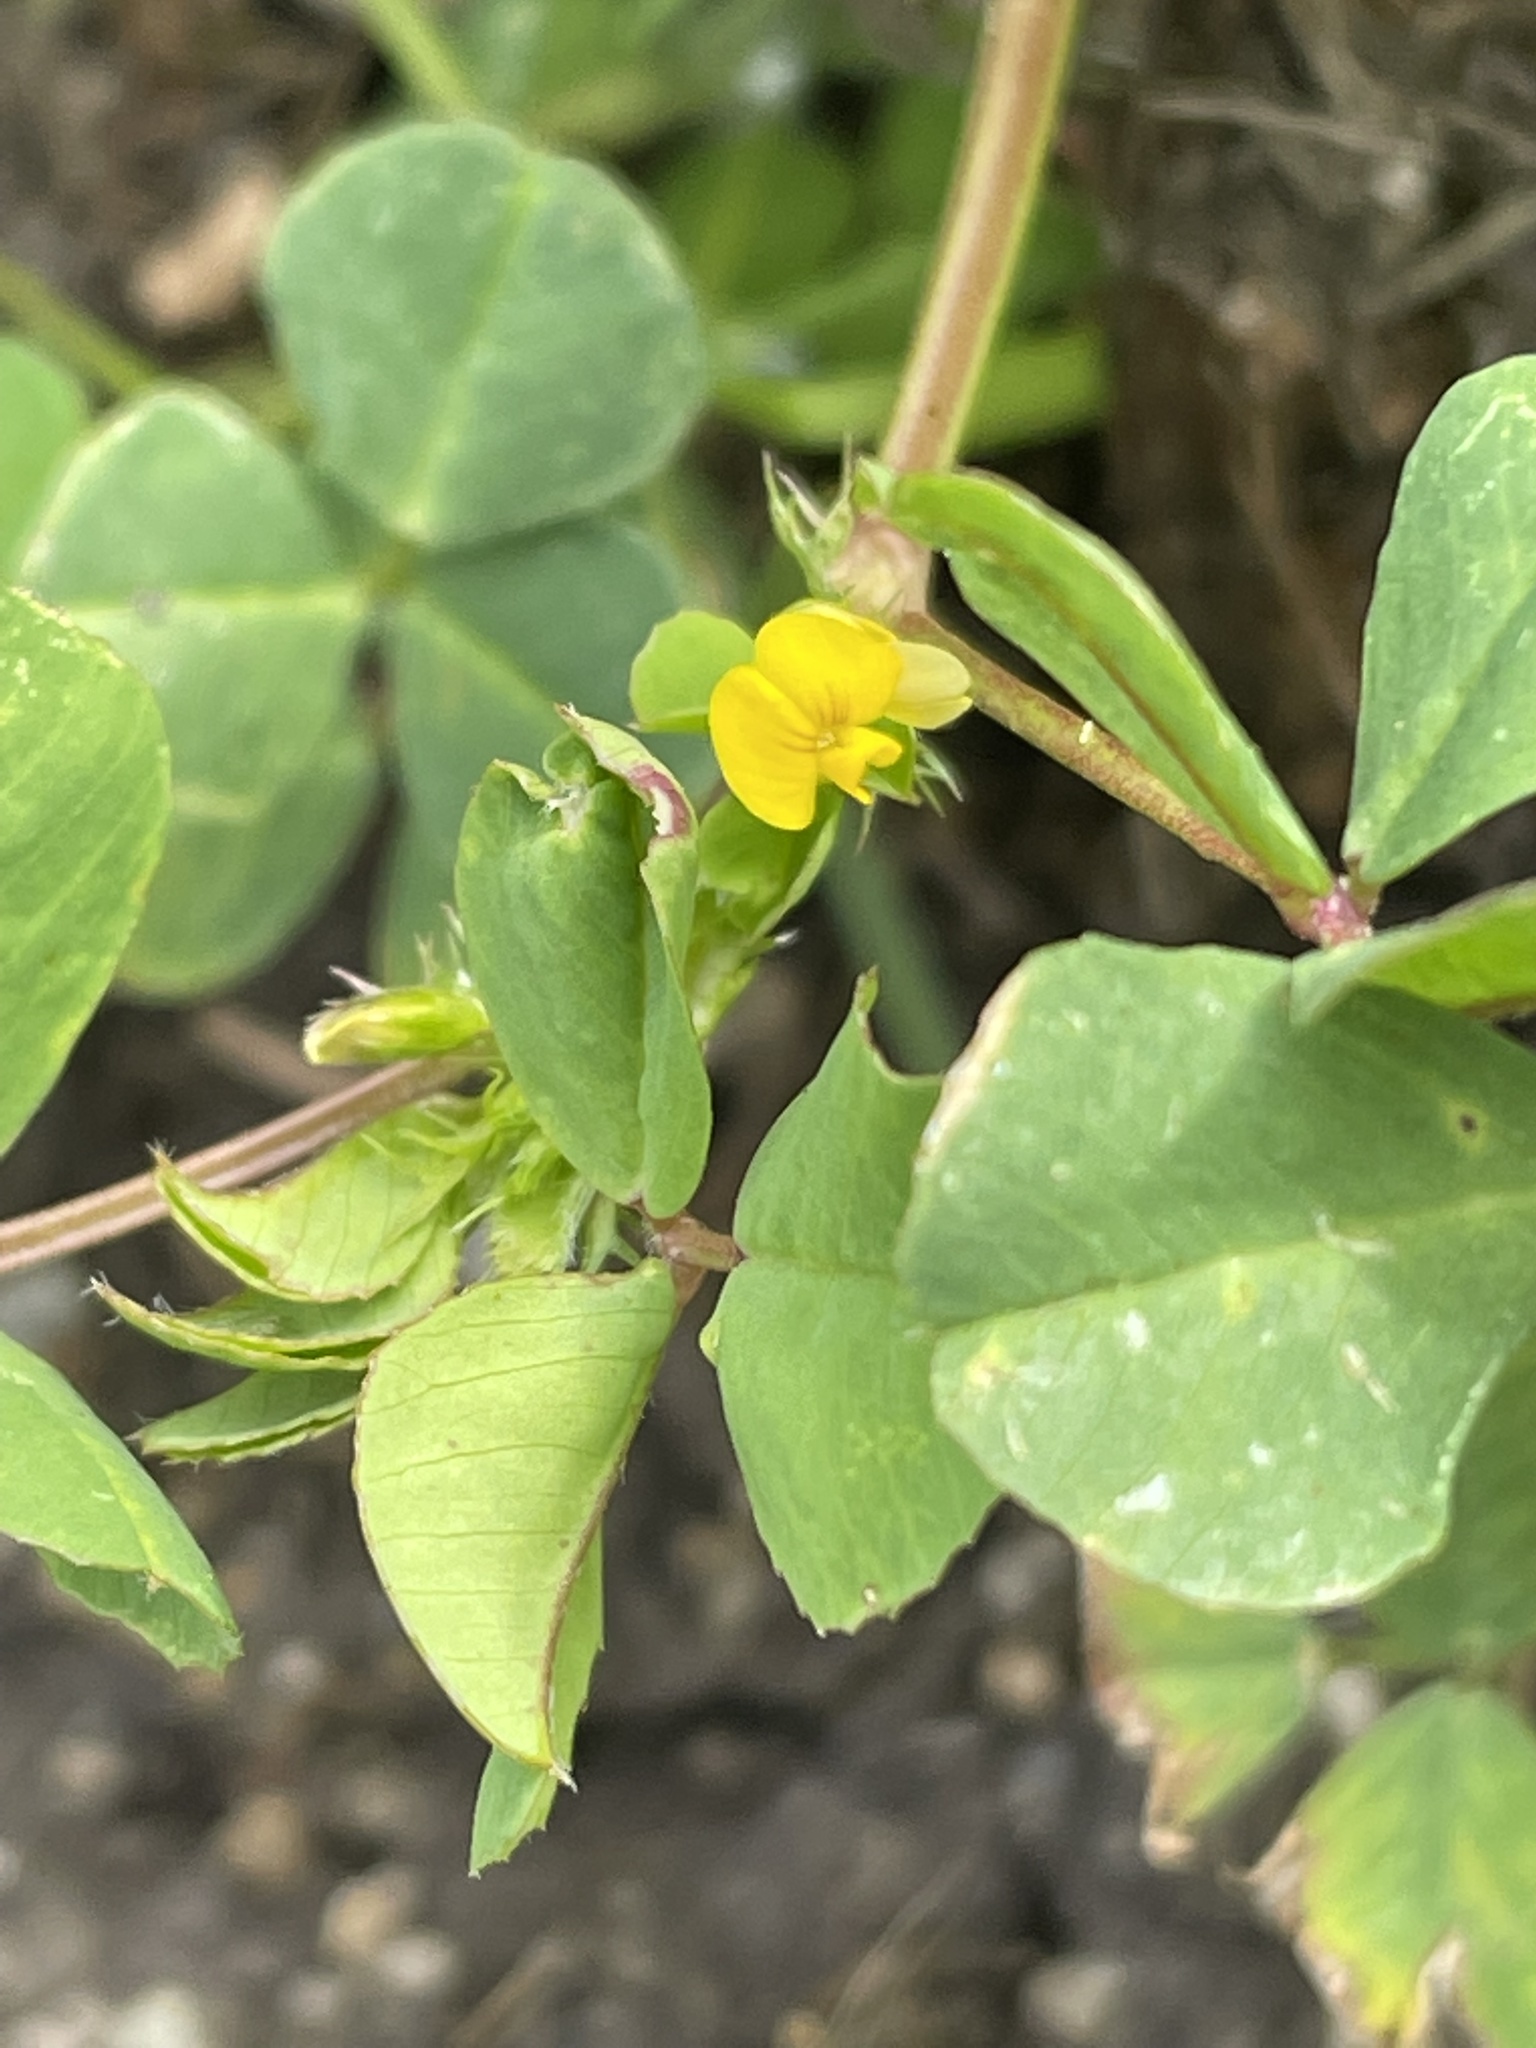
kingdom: Plantae
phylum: Tracheophyta
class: Magnoliopsida
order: Fabales
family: Fabaceae
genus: Medicago
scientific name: Medicago polymorpha
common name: Burclover
